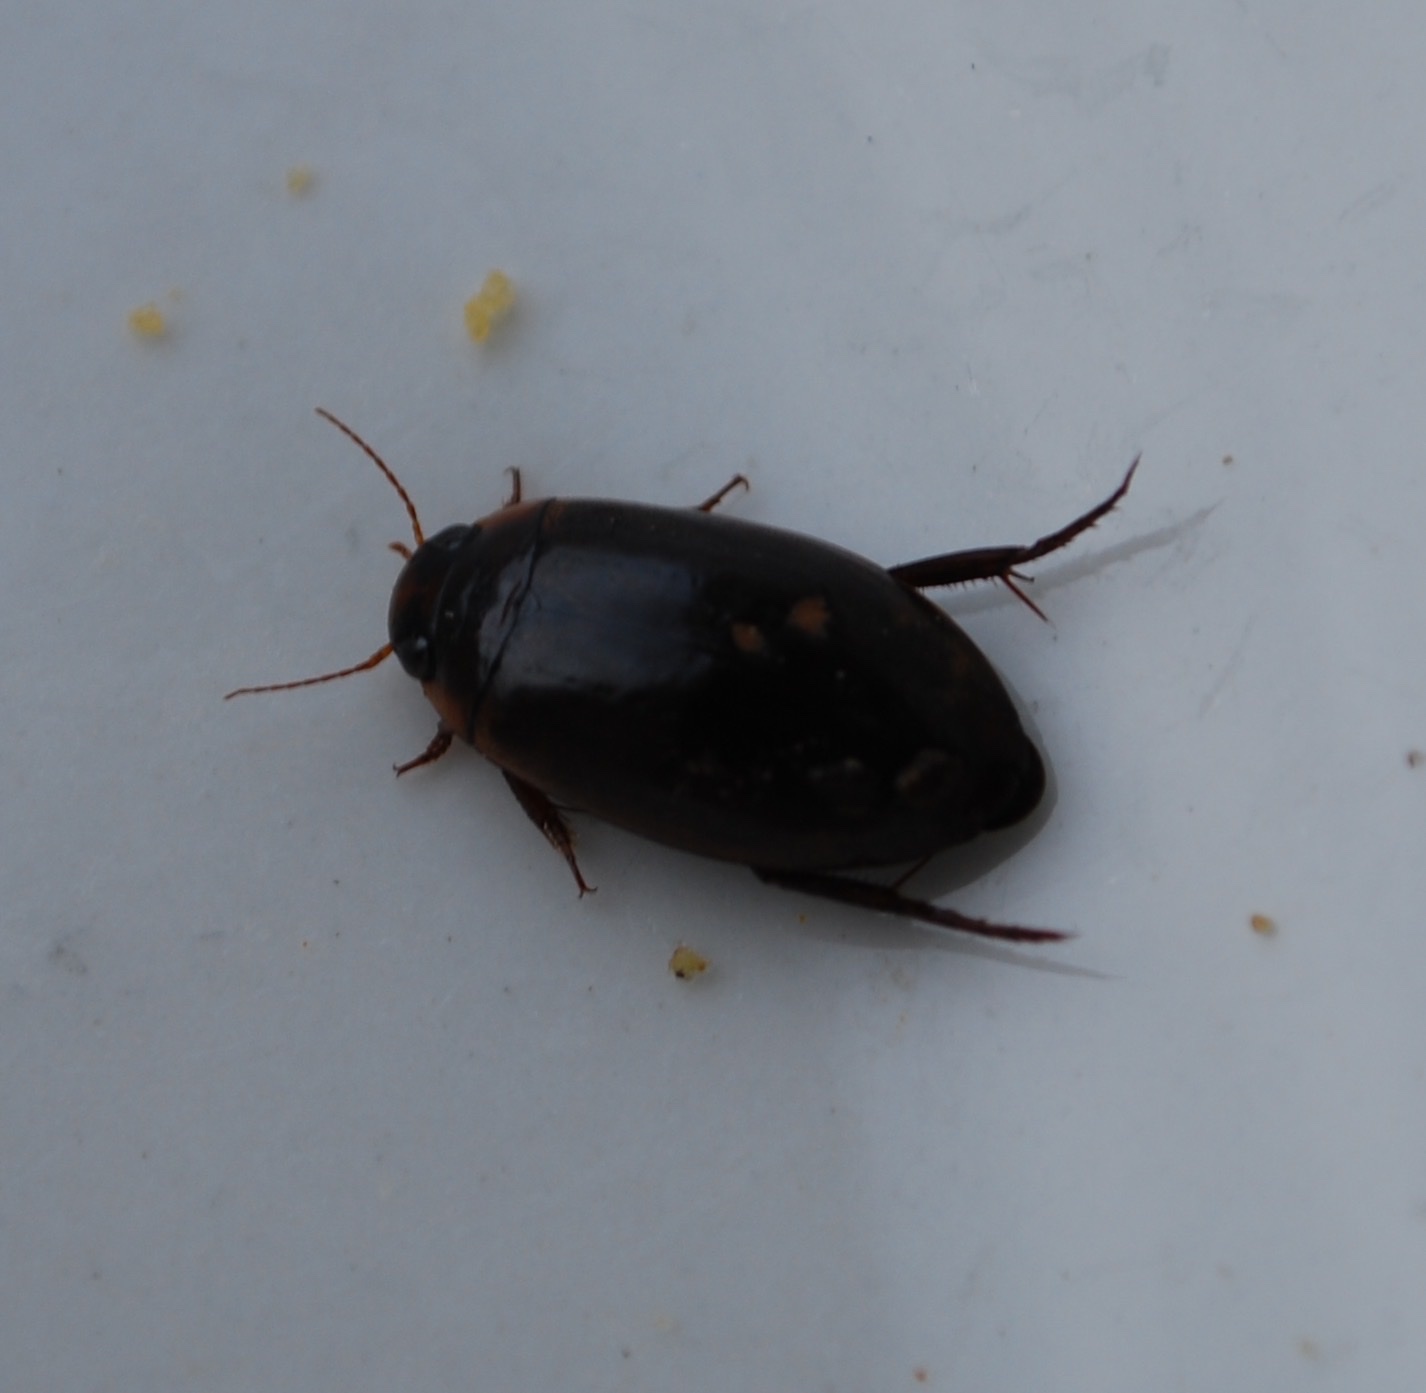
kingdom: Animalia
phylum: Arthropoda
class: Insecta
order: Coleoptera
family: Dytiscidae
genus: Rhantus
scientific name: Rhantus suturalis
